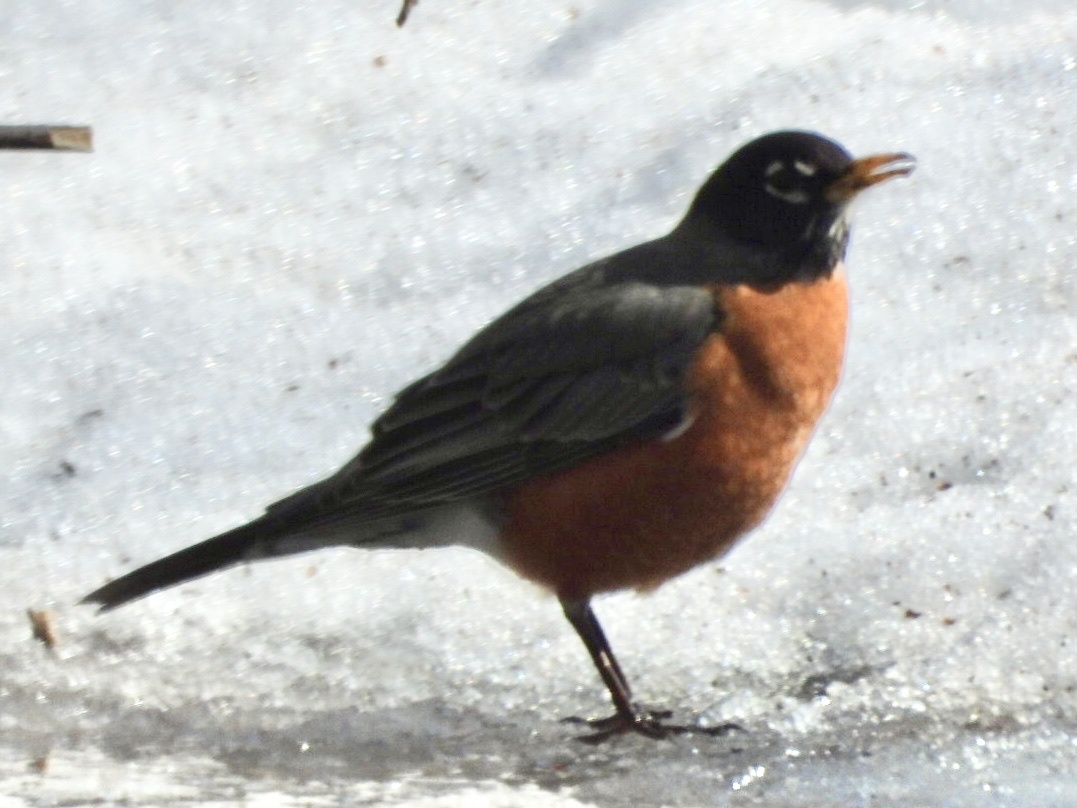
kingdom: Animalia
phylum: Chordata
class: Aves
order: Passeriformes
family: Turdidae
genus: Turdus
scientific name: Turdus migratorius
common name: American robin
